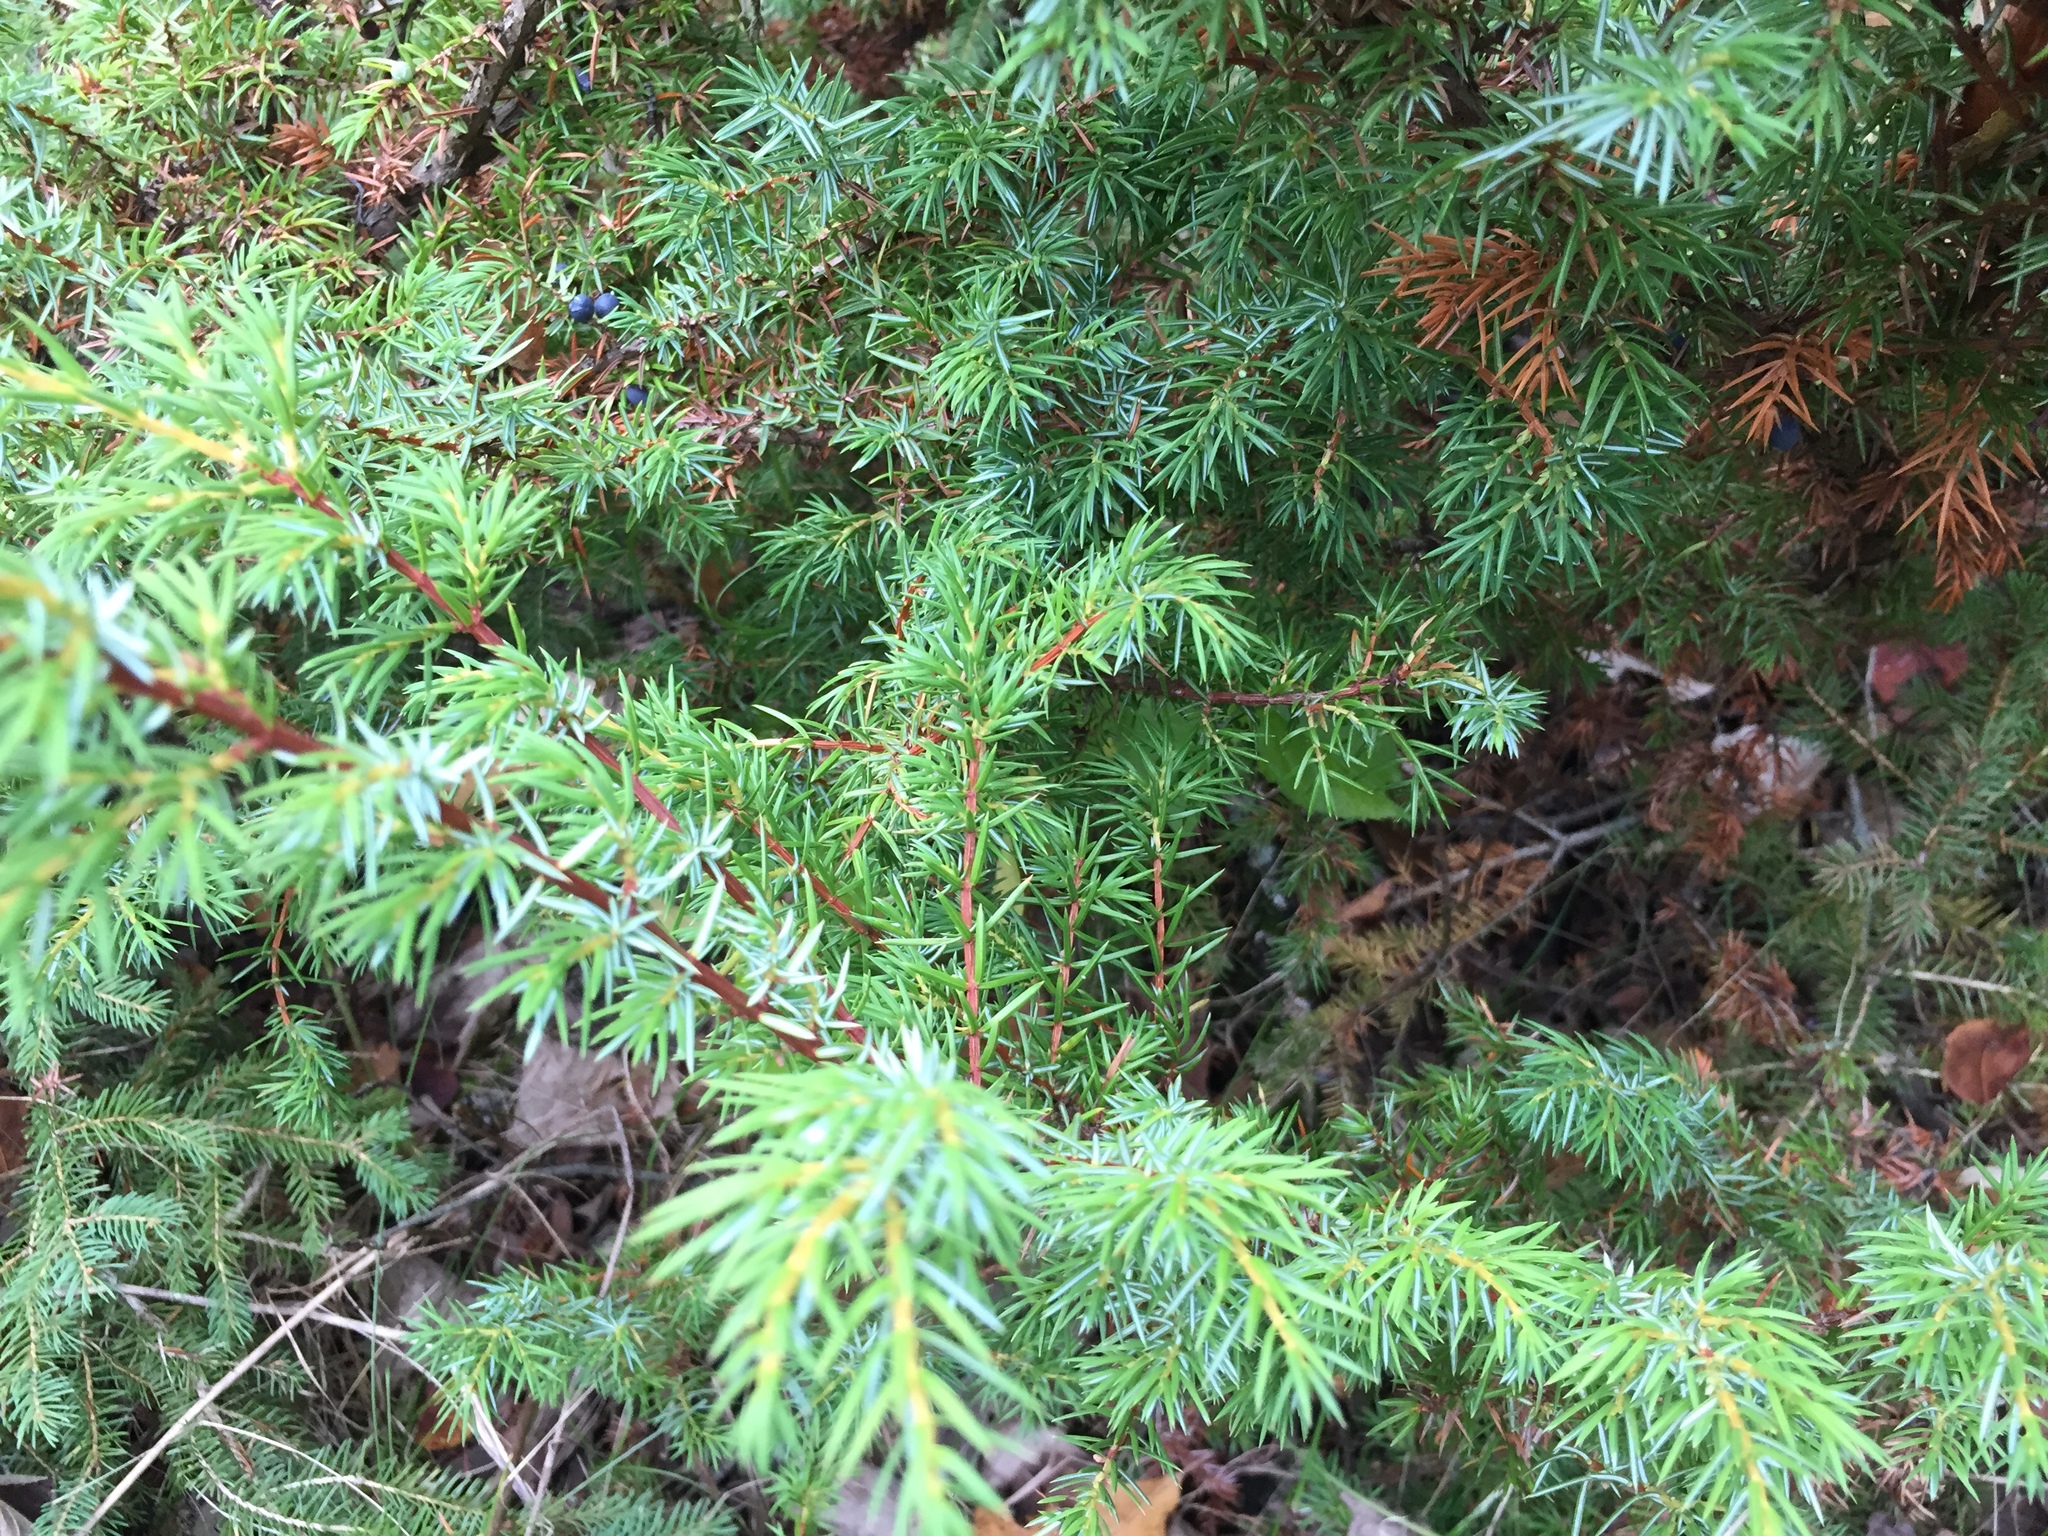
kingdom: Plantae
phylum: Tracheophyta
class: Pinopsida
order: Pinales
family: Cupressaceae
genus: Juniperus
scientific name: Juniperus communis
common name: Common juniper
